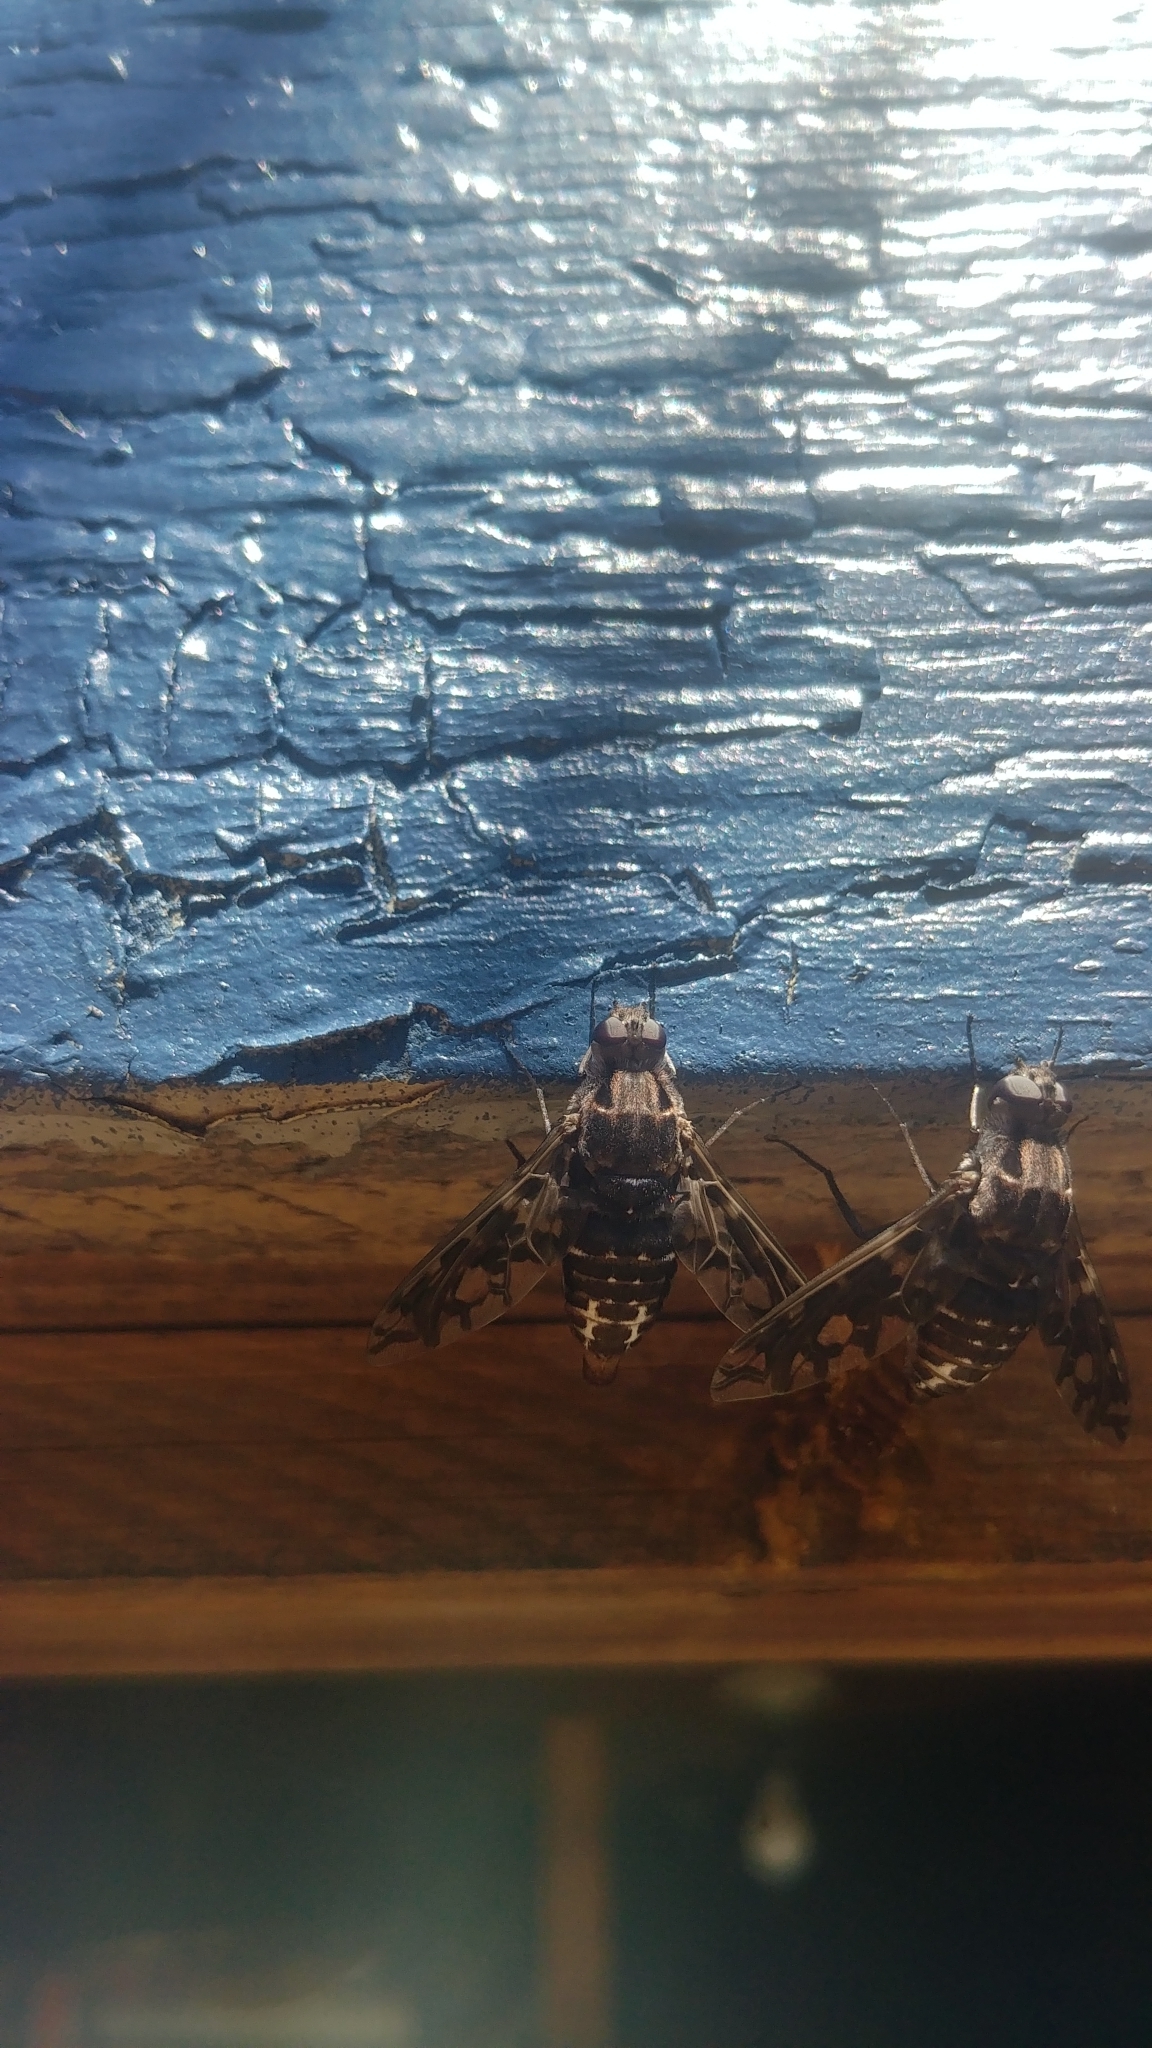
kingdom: Animalia
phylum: Arthropoda
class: Insecta
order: Diptera
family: Bombyliidae
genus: Xenox
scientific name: Xenox tigrinus
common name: Tiger bee fly
